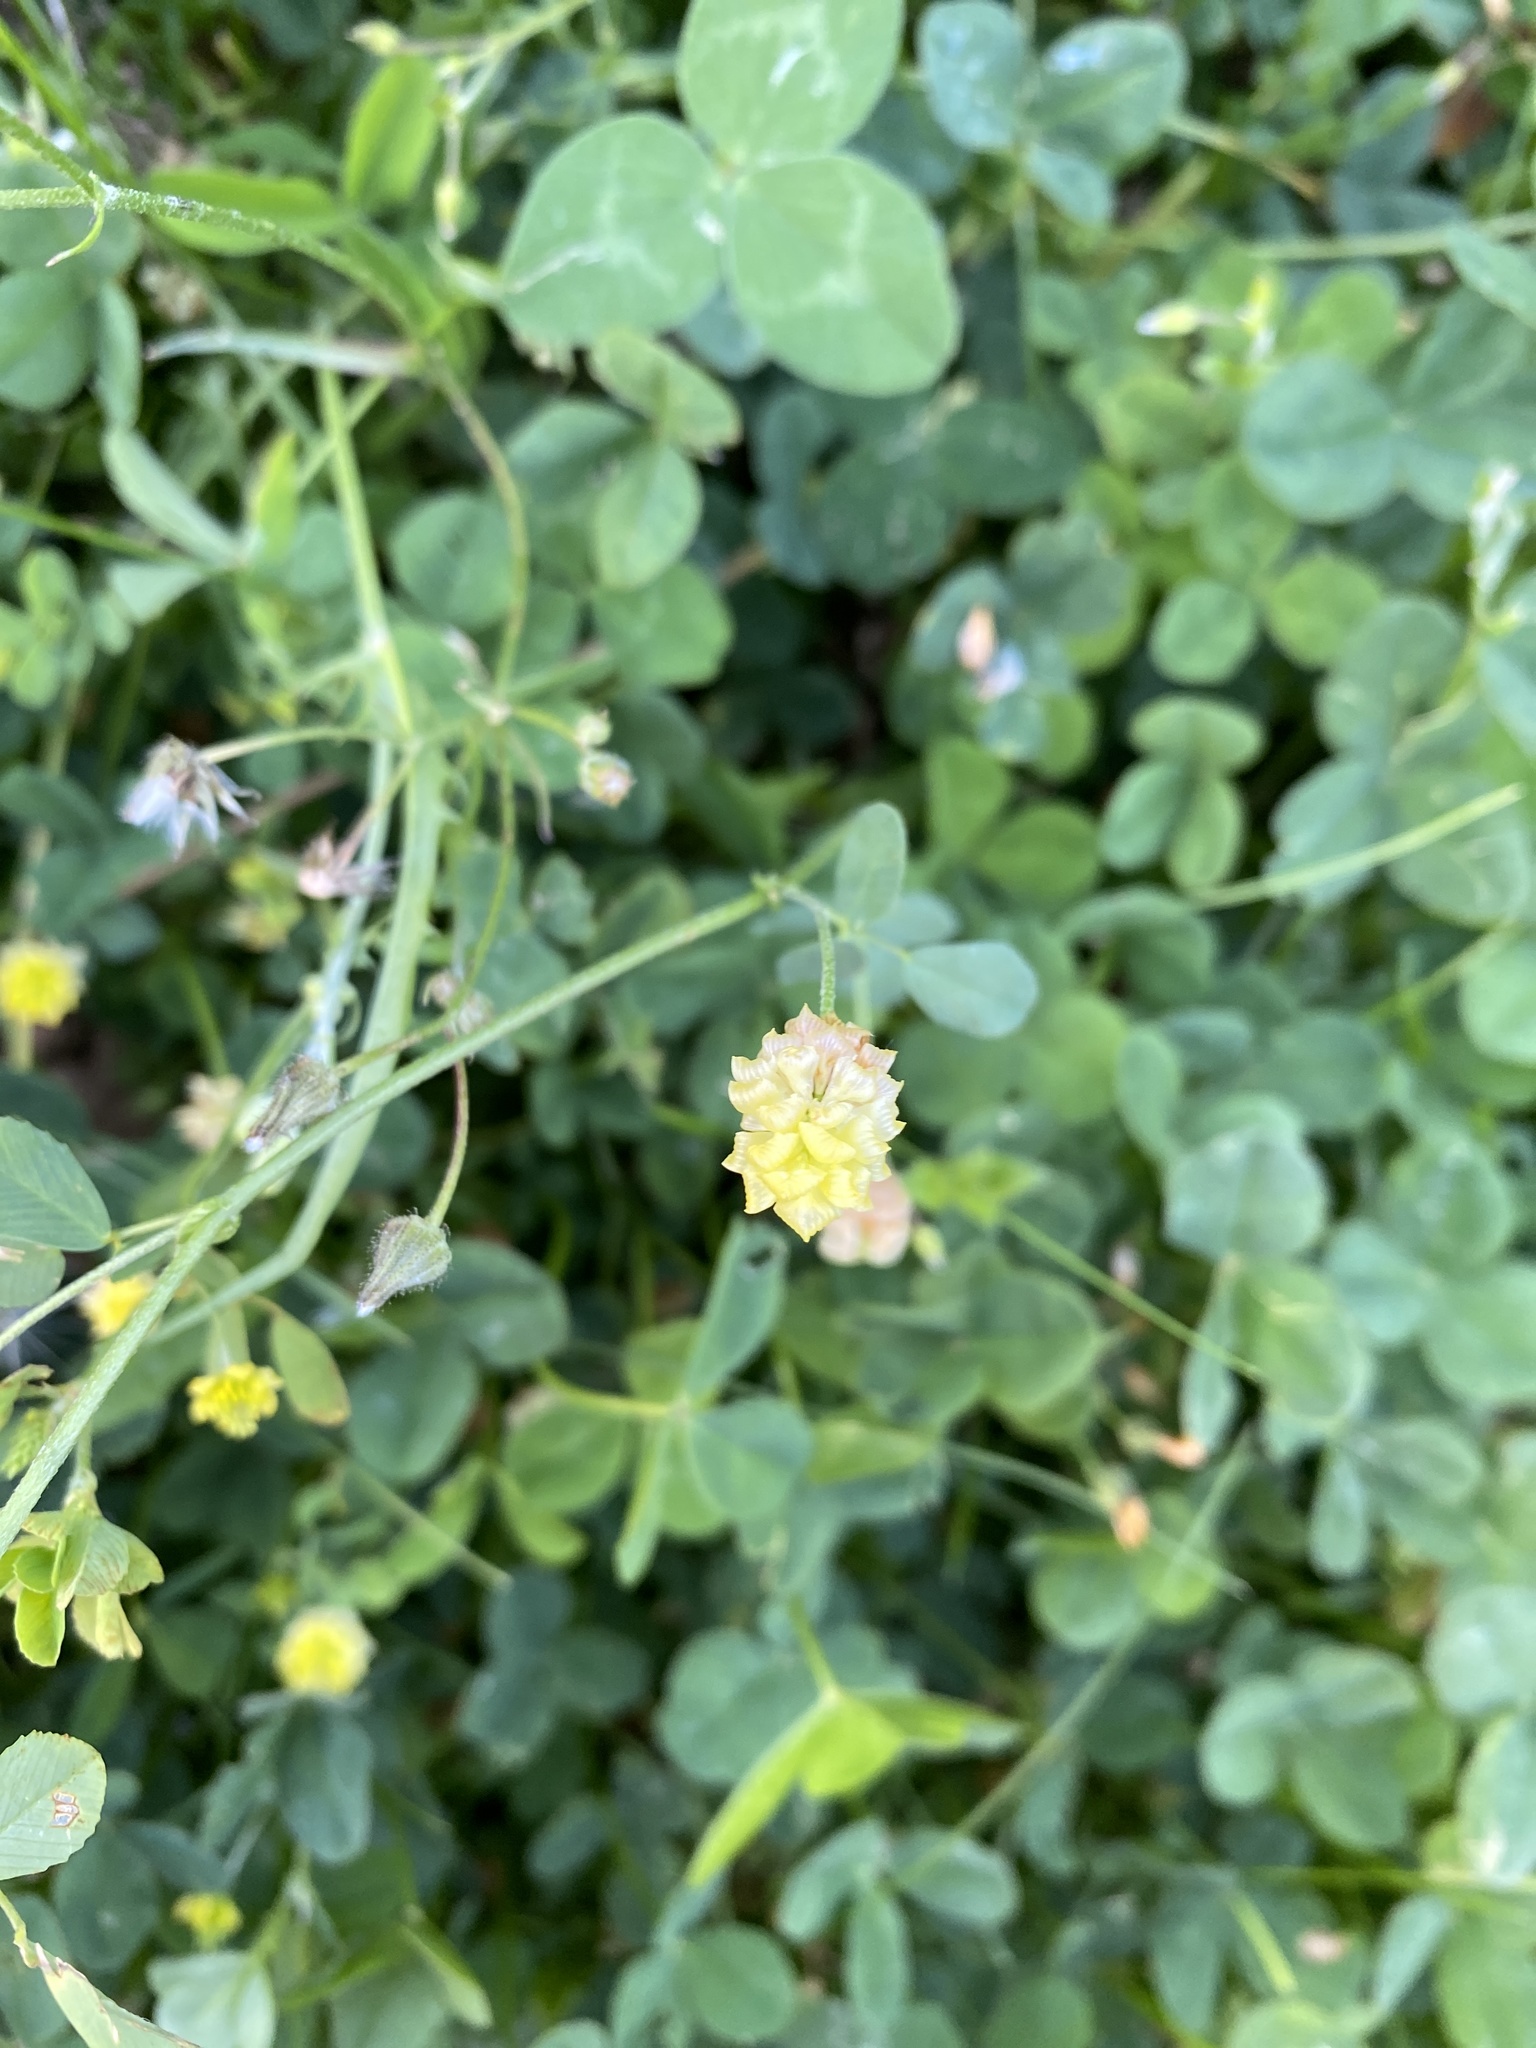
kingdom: Plantae
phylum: Tracheophyta
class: Magnoliopsida
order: Fabales
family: Fabaceae
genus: Trifolium
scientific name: Trifolium campestre
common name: Field clover
